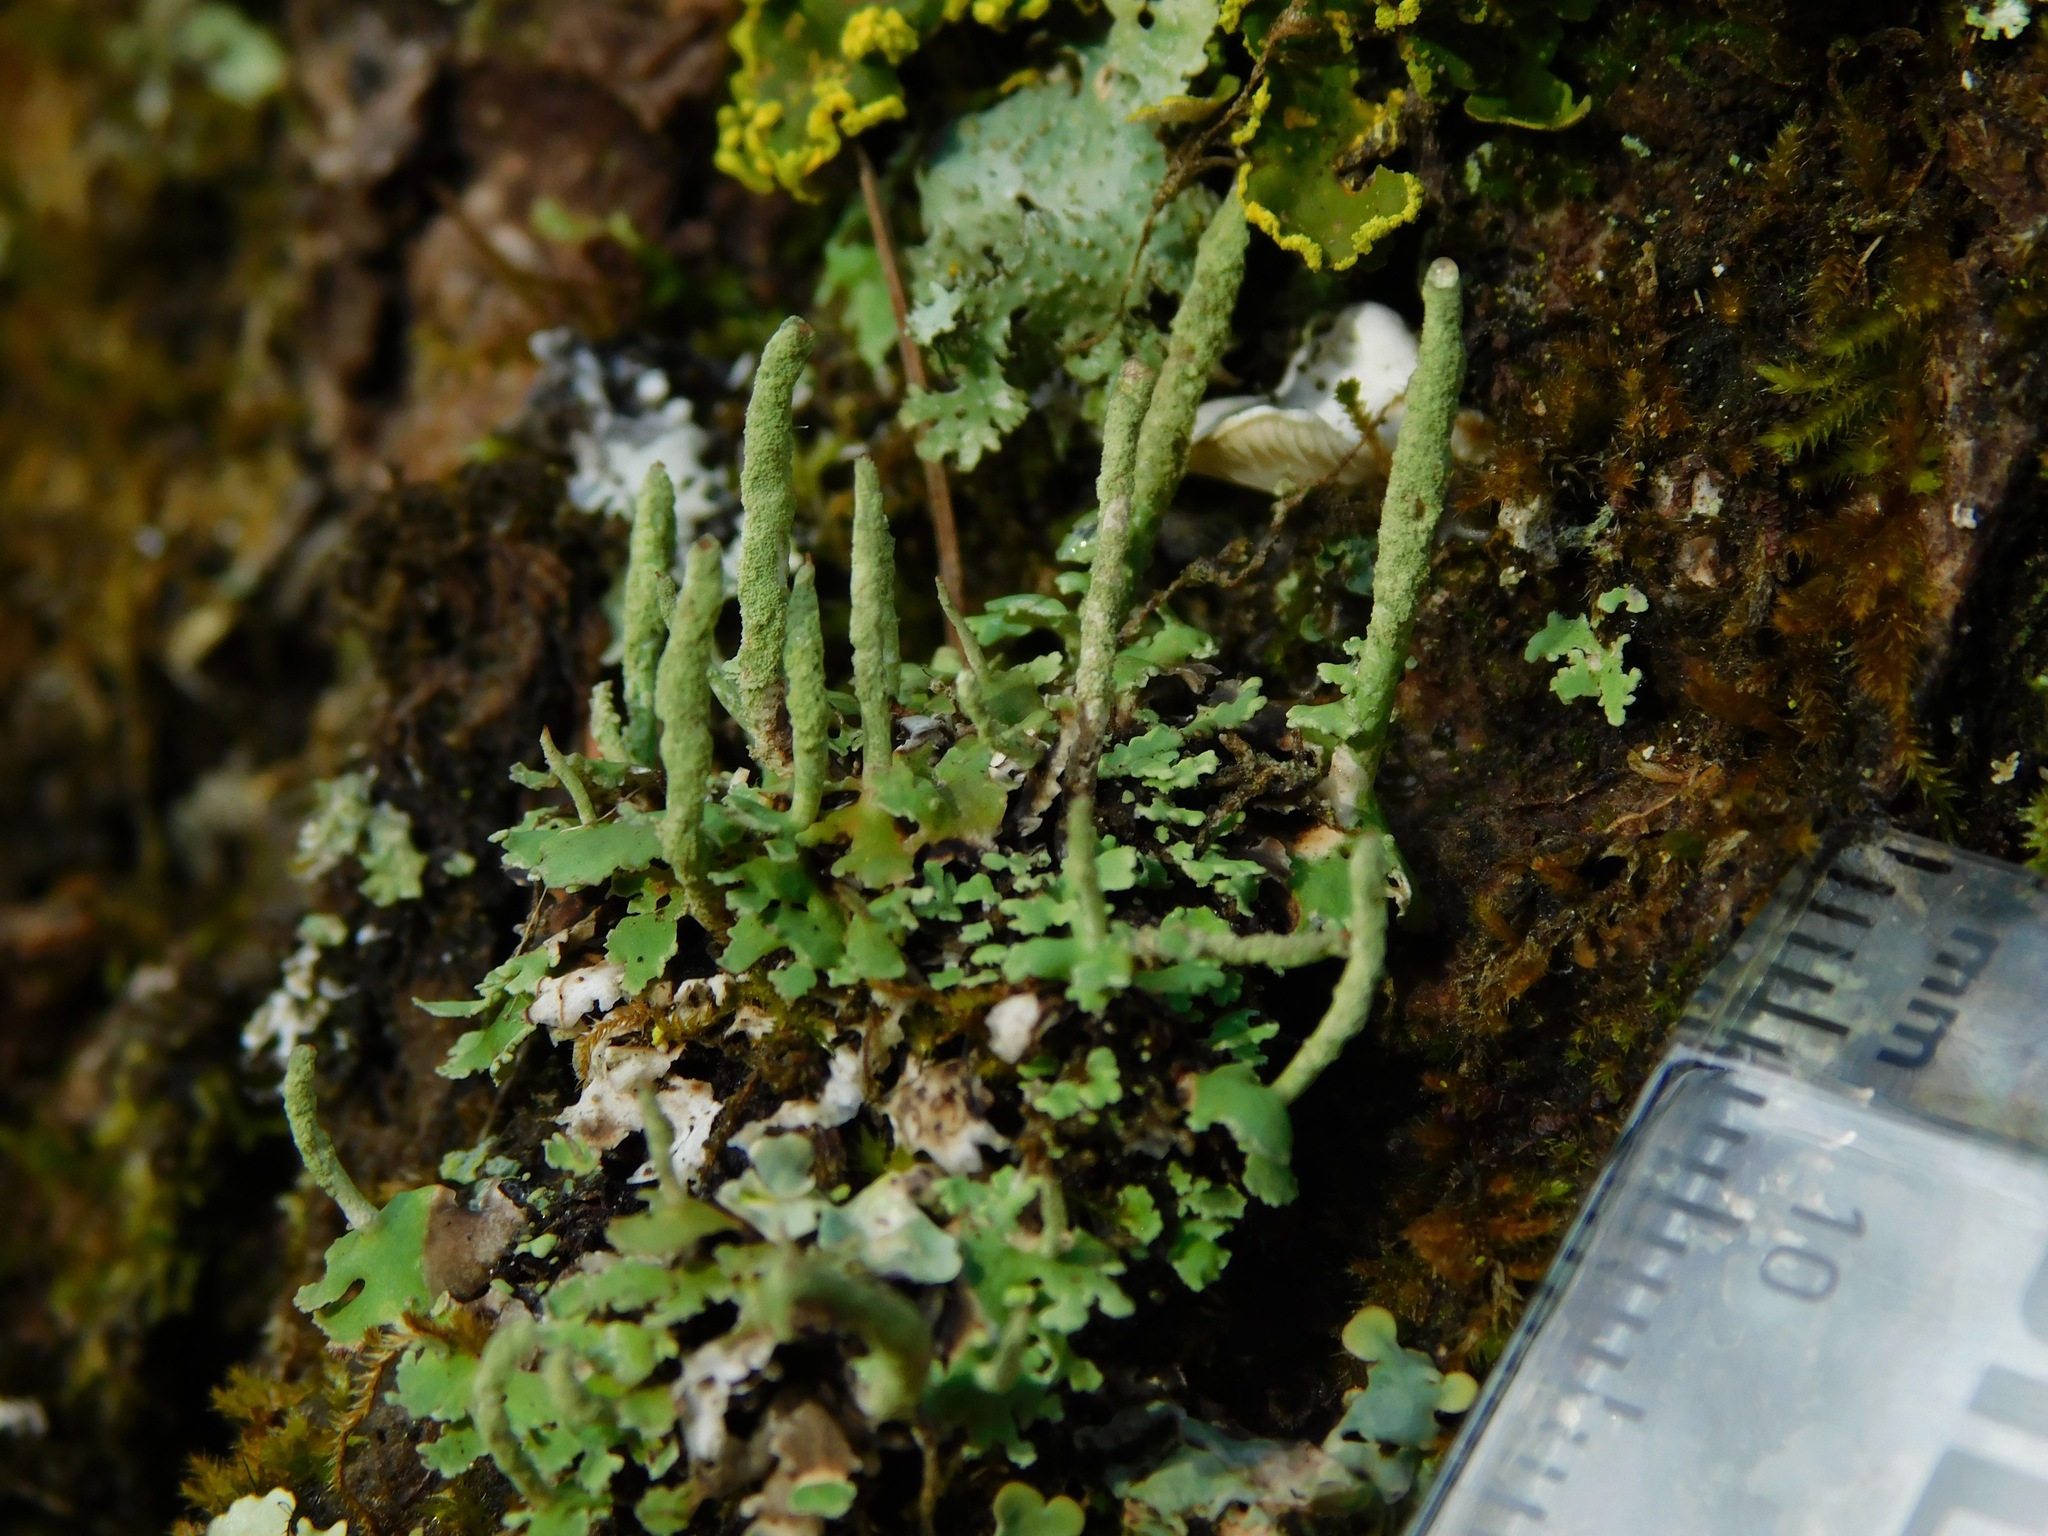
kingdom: Fungi
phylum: Ascomycota
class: Lecanoromycetes
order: Lecanorales
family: Cladoniaceae
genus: Cladonia
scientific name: Cladonia ochrochlora
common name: Smooth-footed powderhorn
